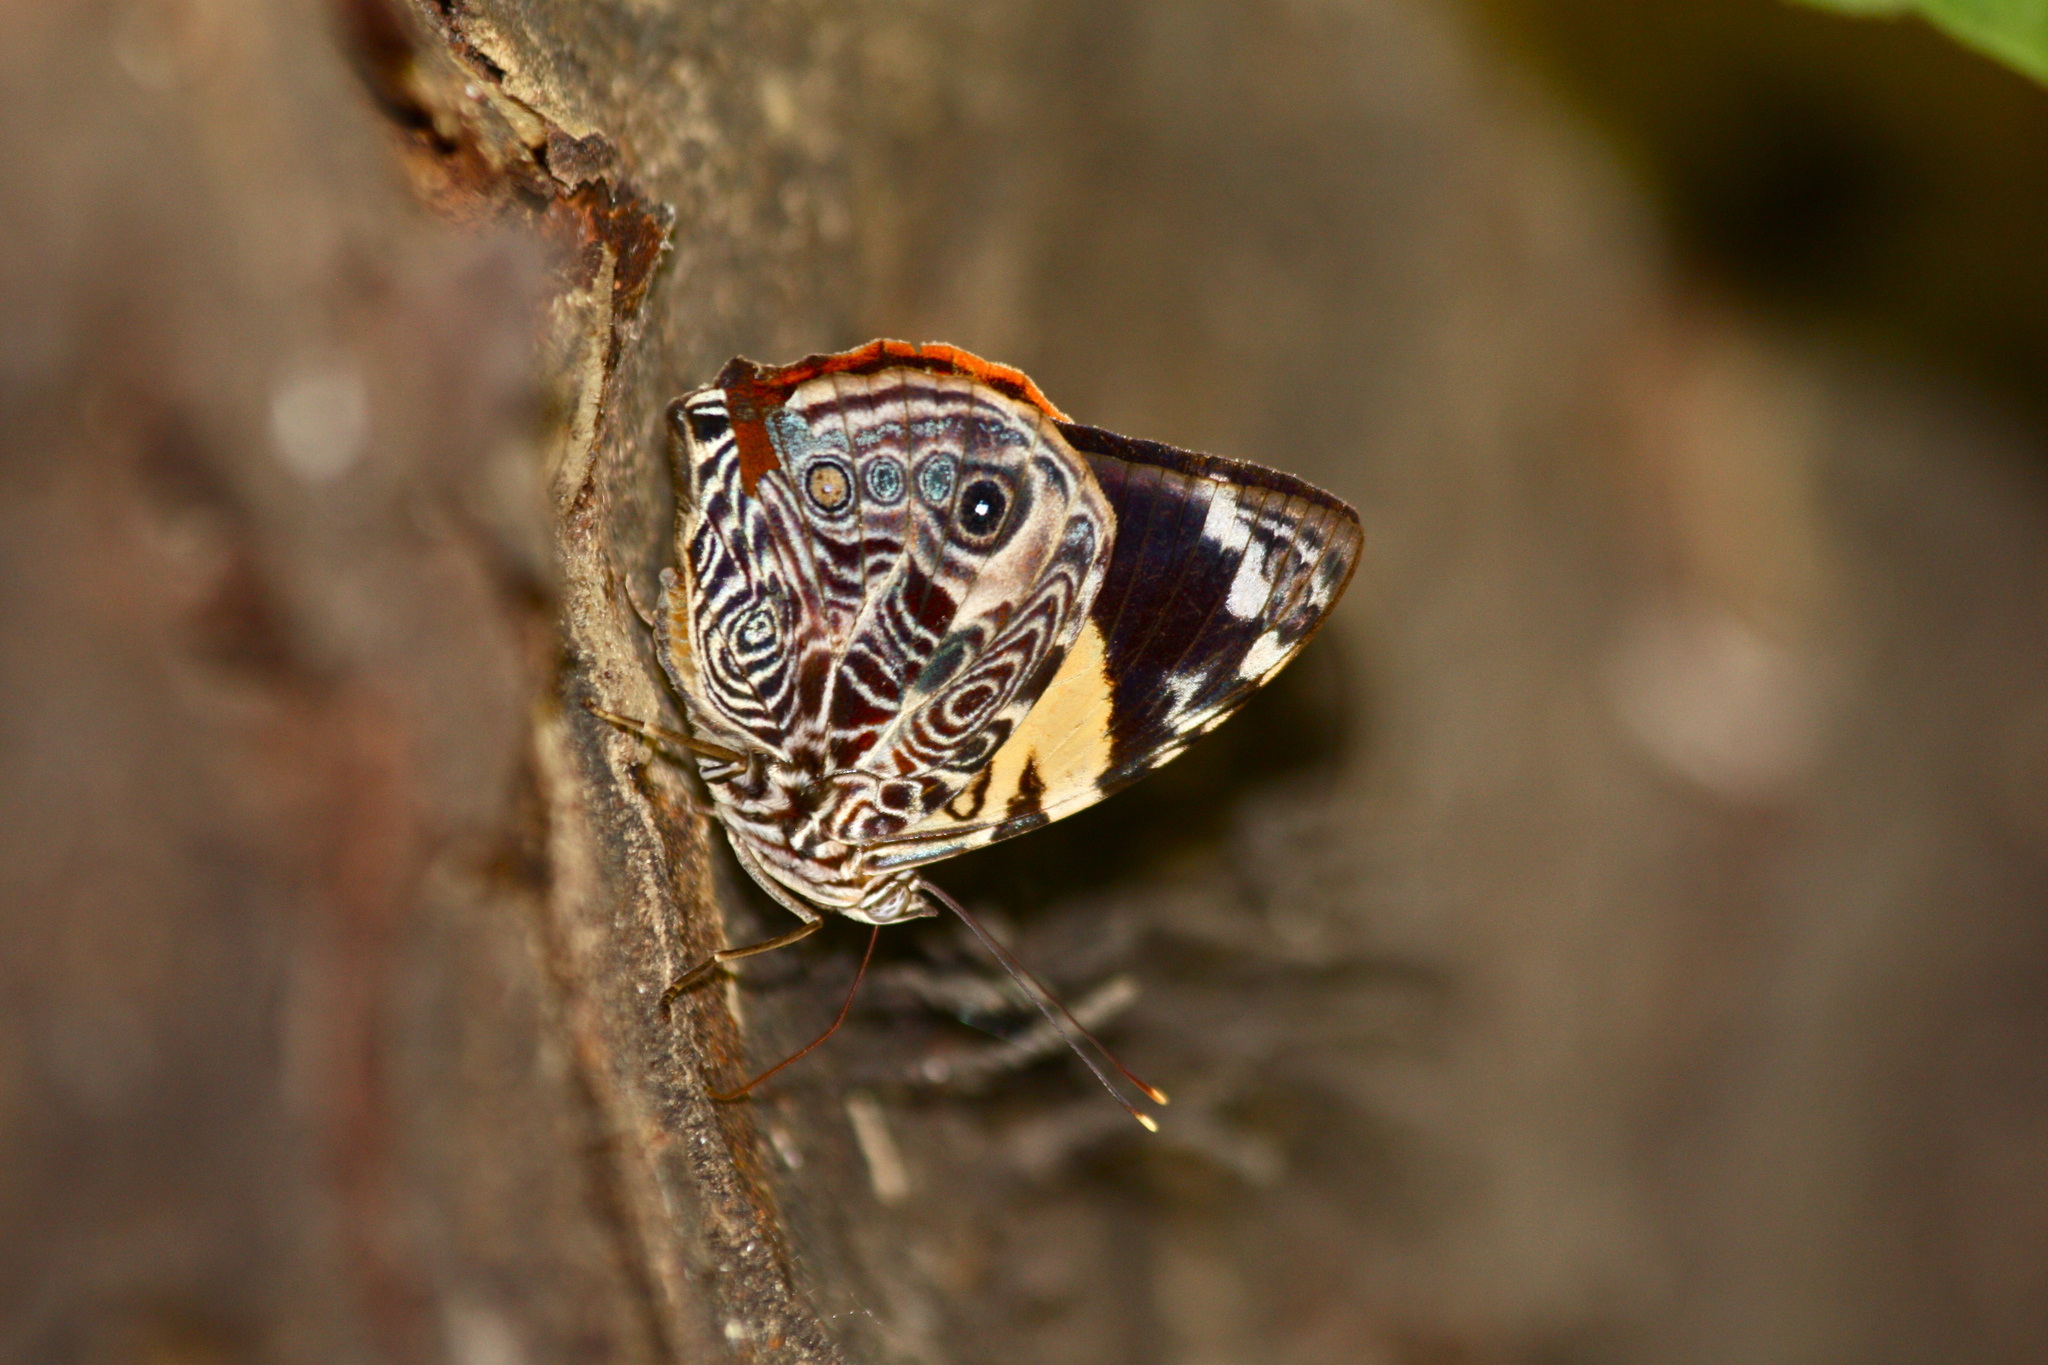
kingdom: Animalia
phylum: Arthropoda
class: Insecta
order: Lepidoptera
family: Nymphalidae
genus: Smyrna
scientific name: Smyrna blomfildia
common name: Blomfild's beauty
